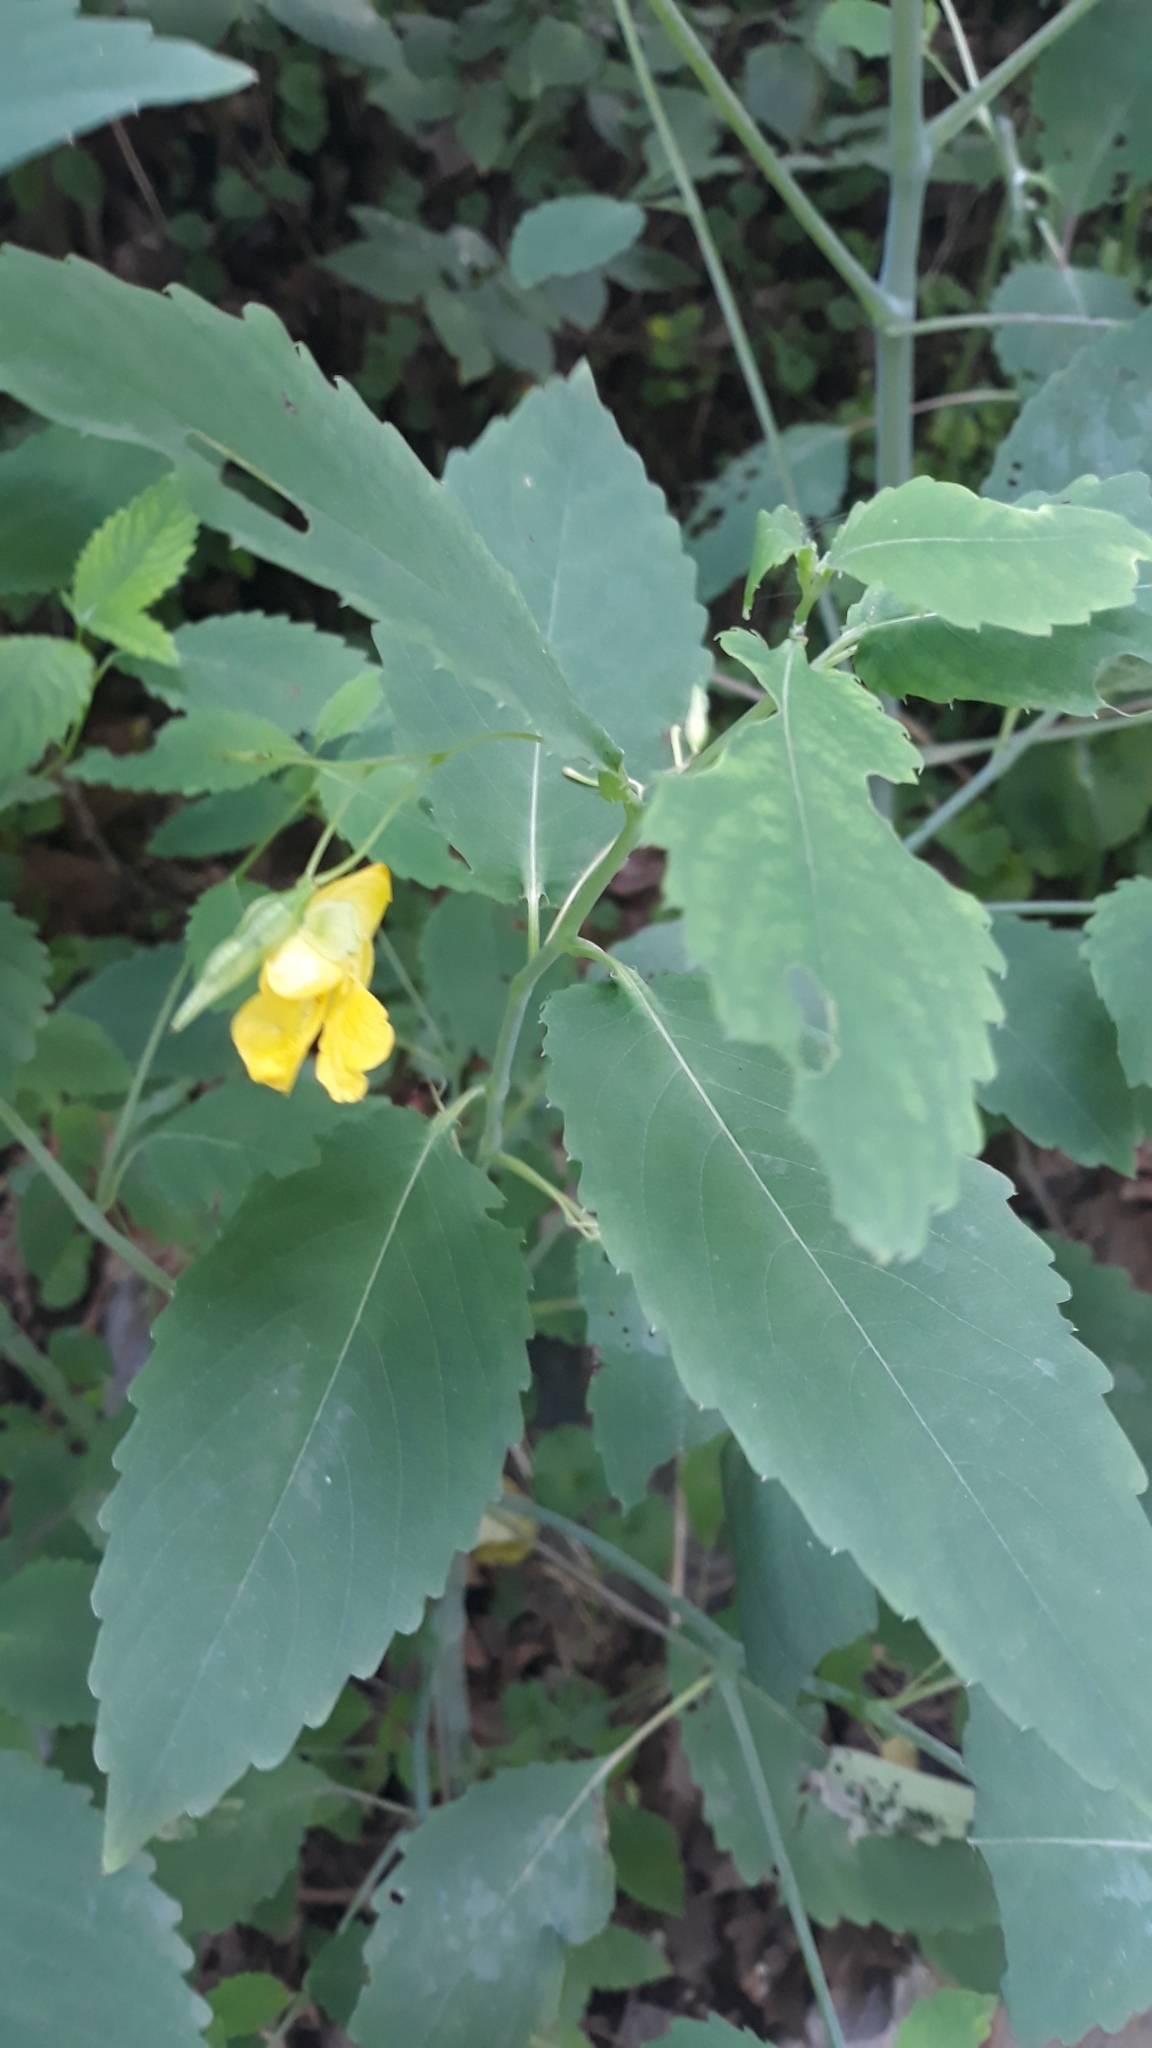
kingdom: Plantae
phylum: Tracheophyta
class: Magnoliopsida
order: Ericales
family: Balsaminaceae
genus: Impatiens
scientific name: Impatiens pallida
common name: Pale snapweed
